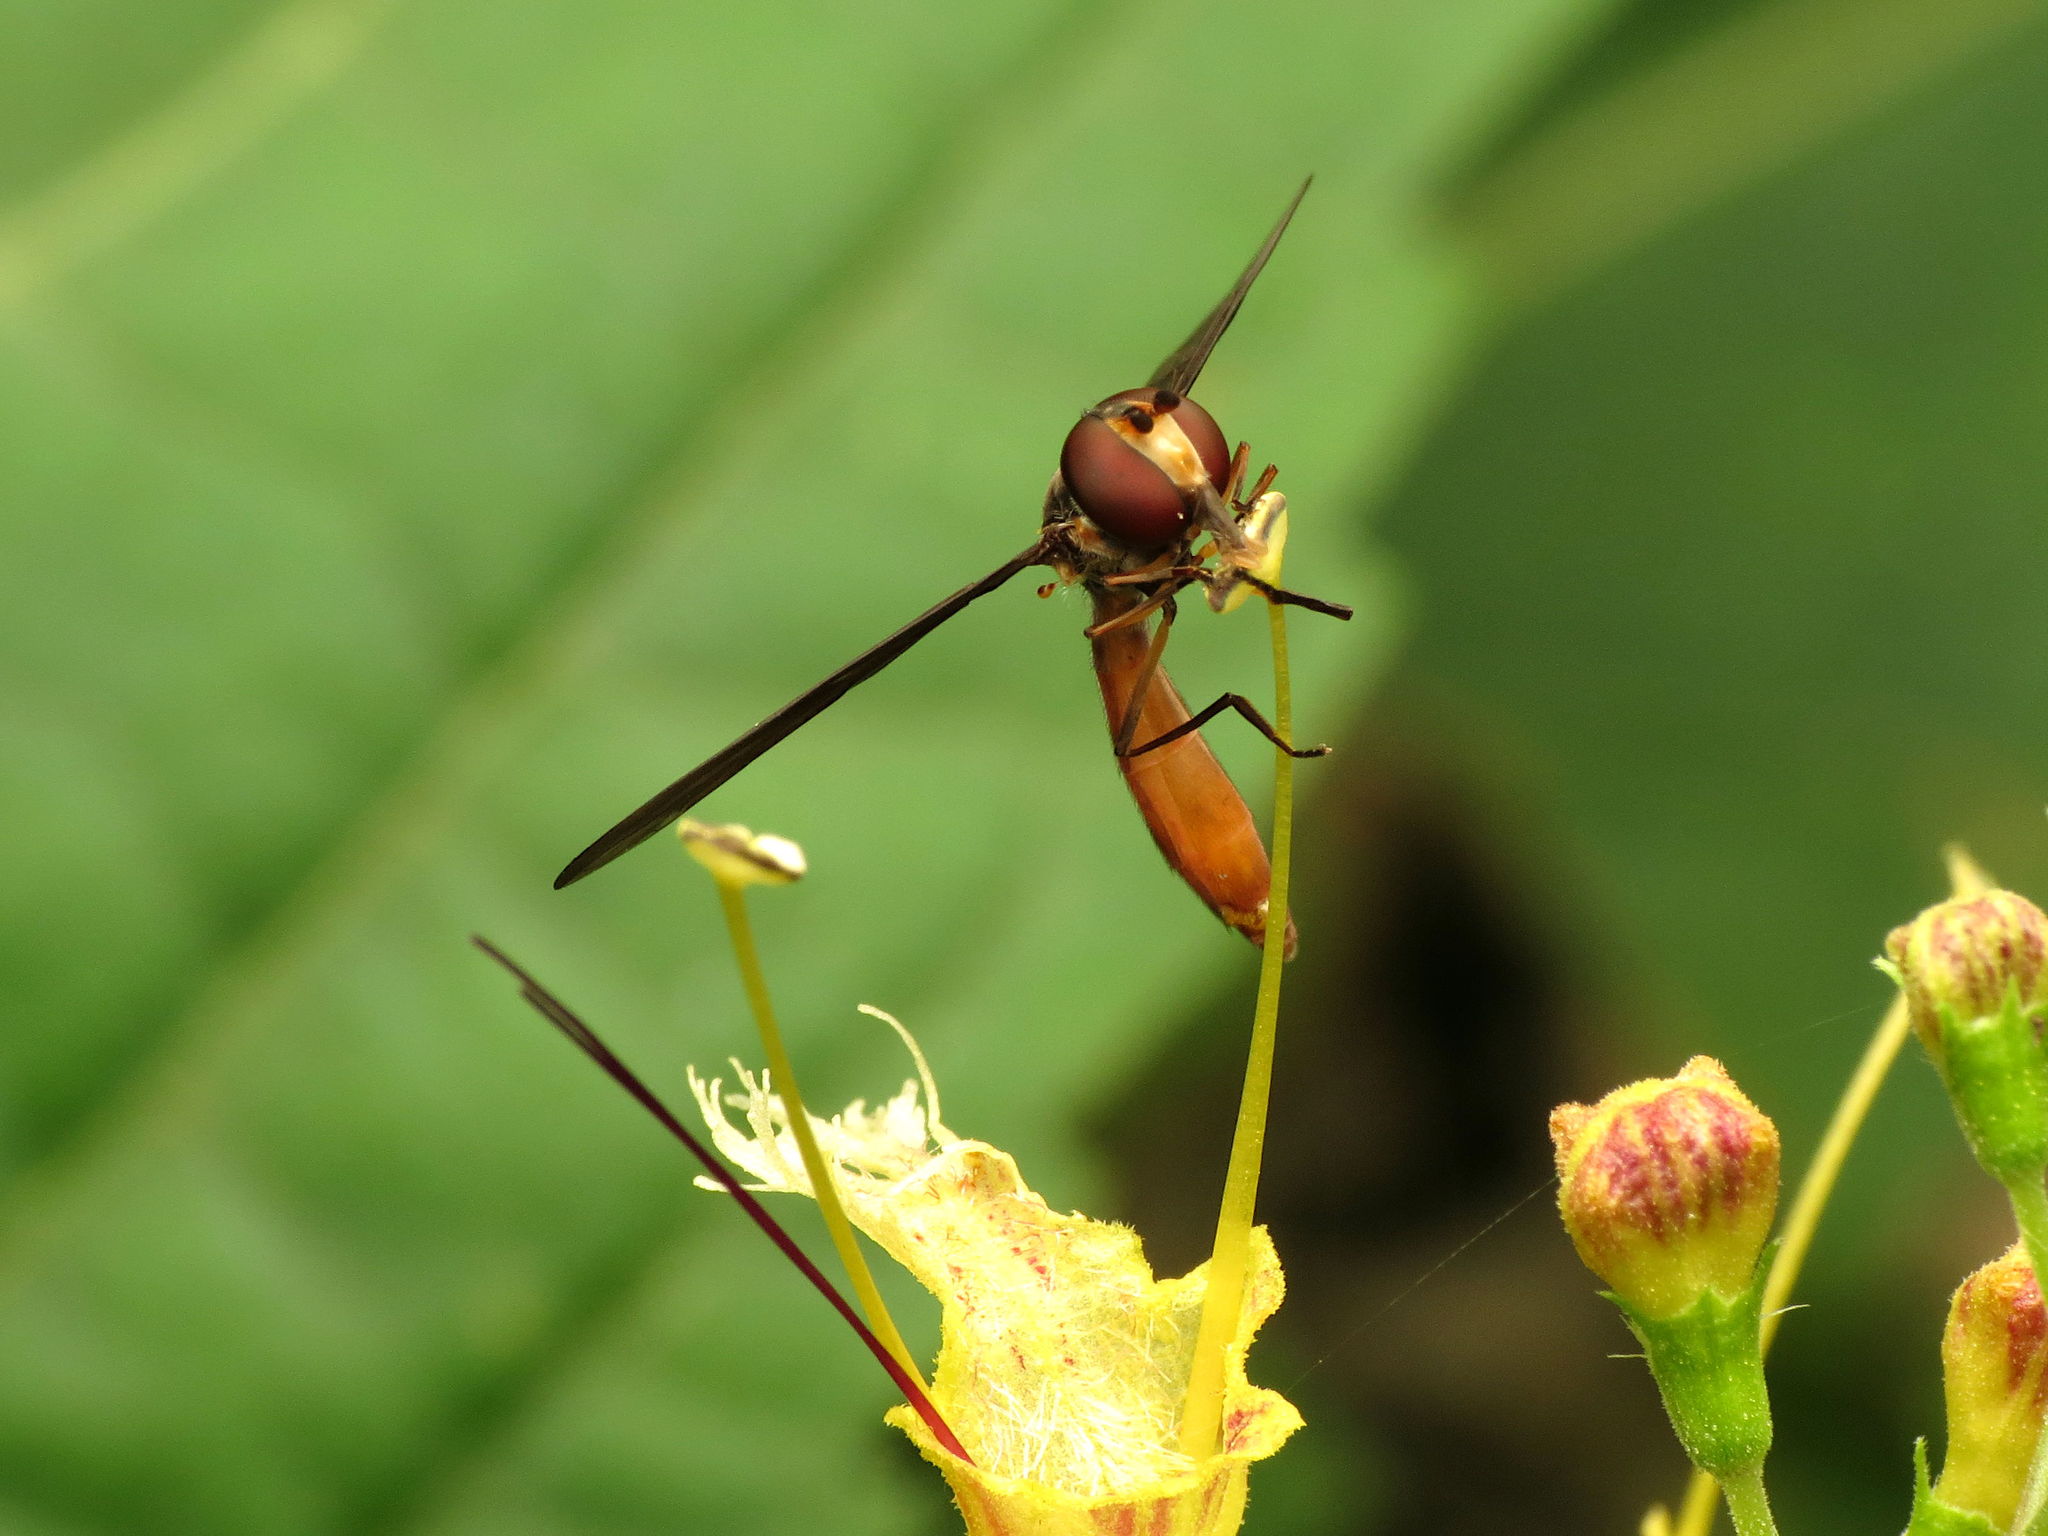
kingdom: Animalia
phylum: Arthropoda
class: Insecta
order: Diptera
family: Syrphidae
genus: Ocyptamus
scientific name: Ocyptamus fuscipennis
